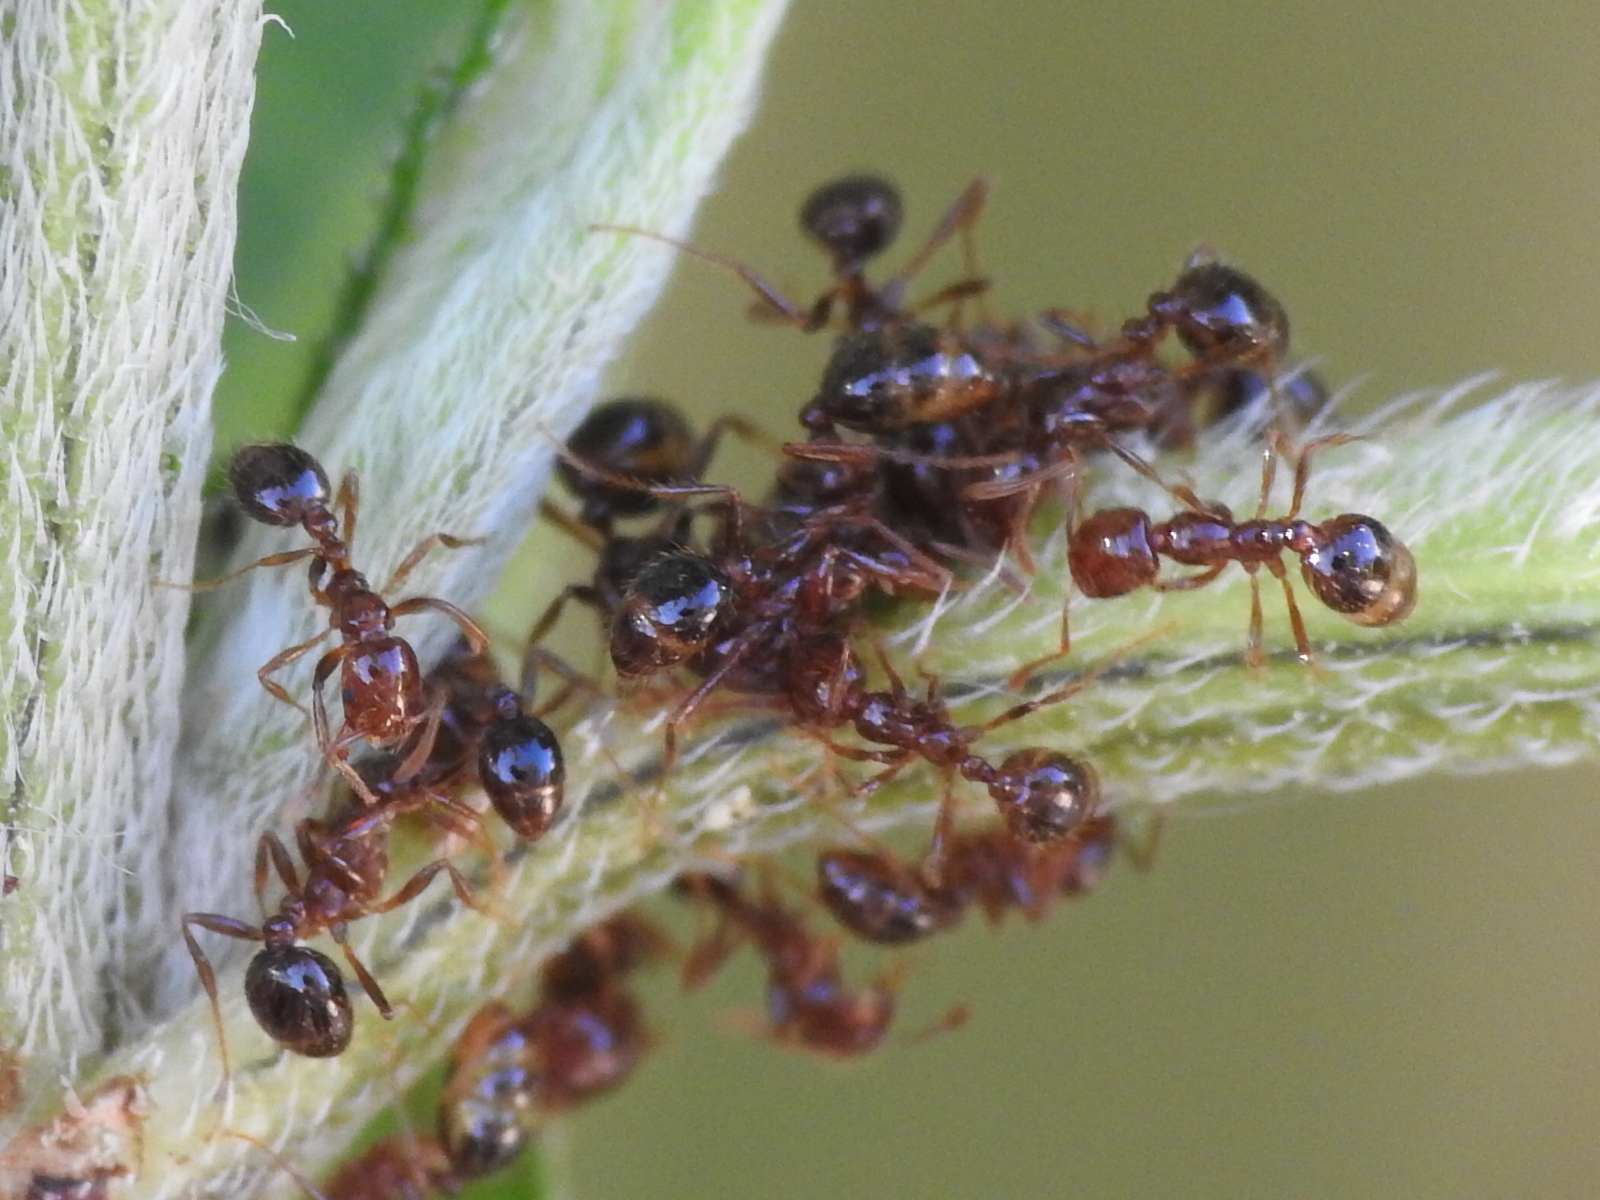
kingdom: Animalia
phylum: Arthropoda
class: Insecta
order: Hymenoptera
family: Formicidae
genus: Solenopsis
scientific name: Solenopsis invicta
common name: Red imported fire ant
